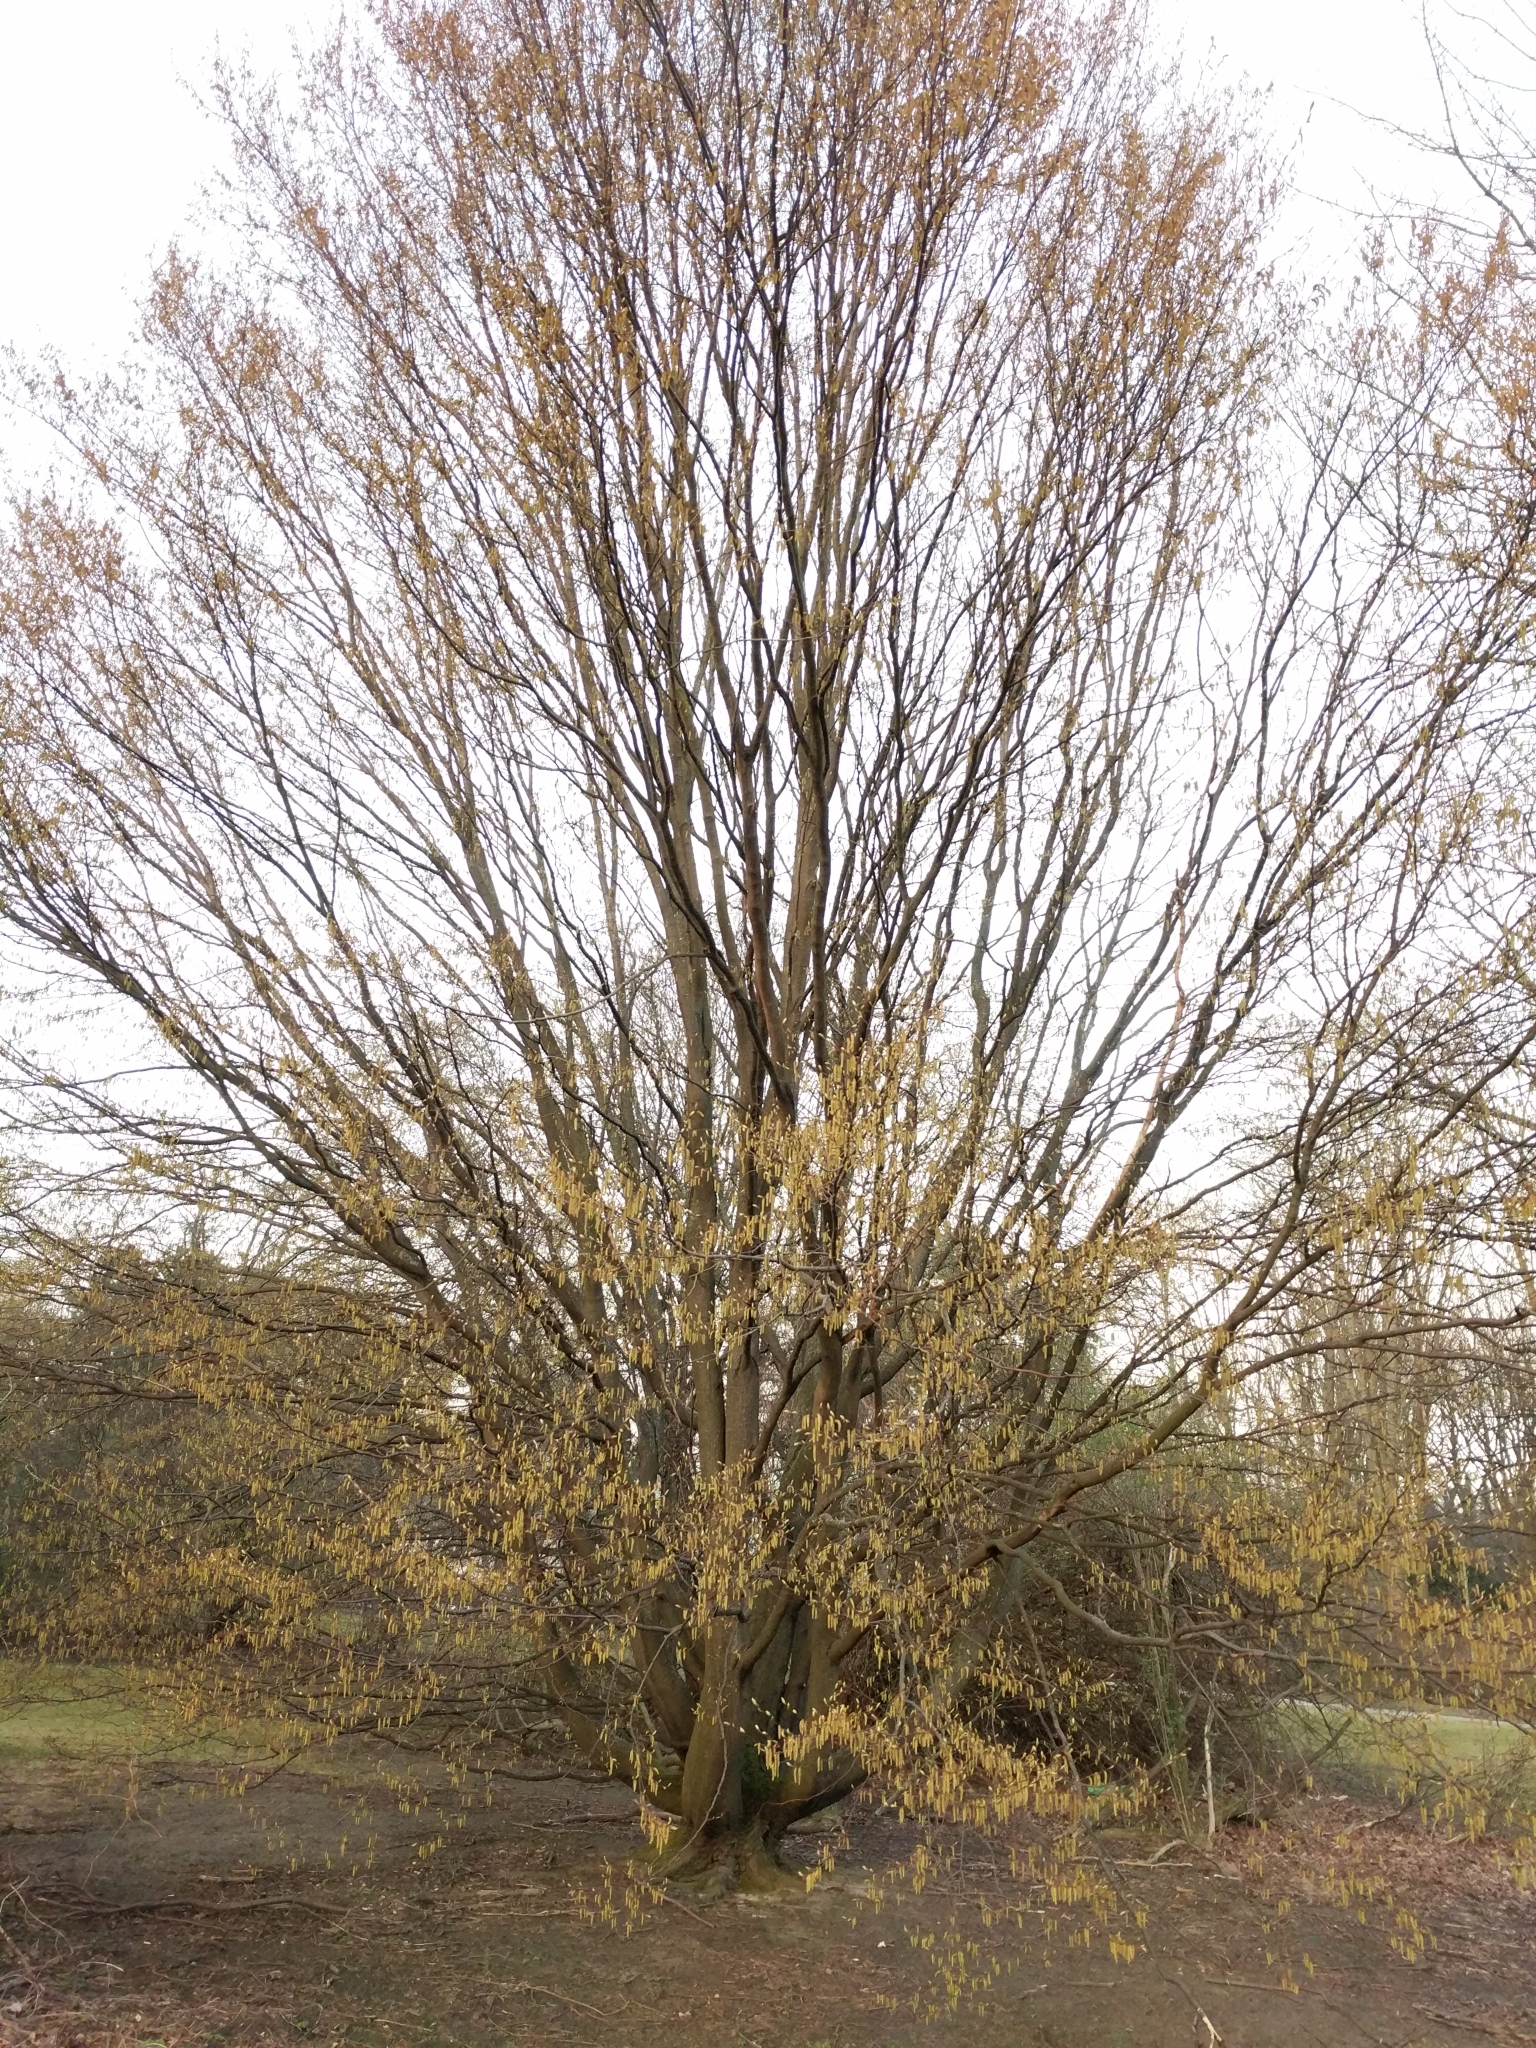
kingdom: Plantae
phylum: Tracheophyta
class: Magnoliopsida
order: Fagales
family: Betulaceae
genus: Corylus
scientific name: Corylus avellana
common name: European hazel
